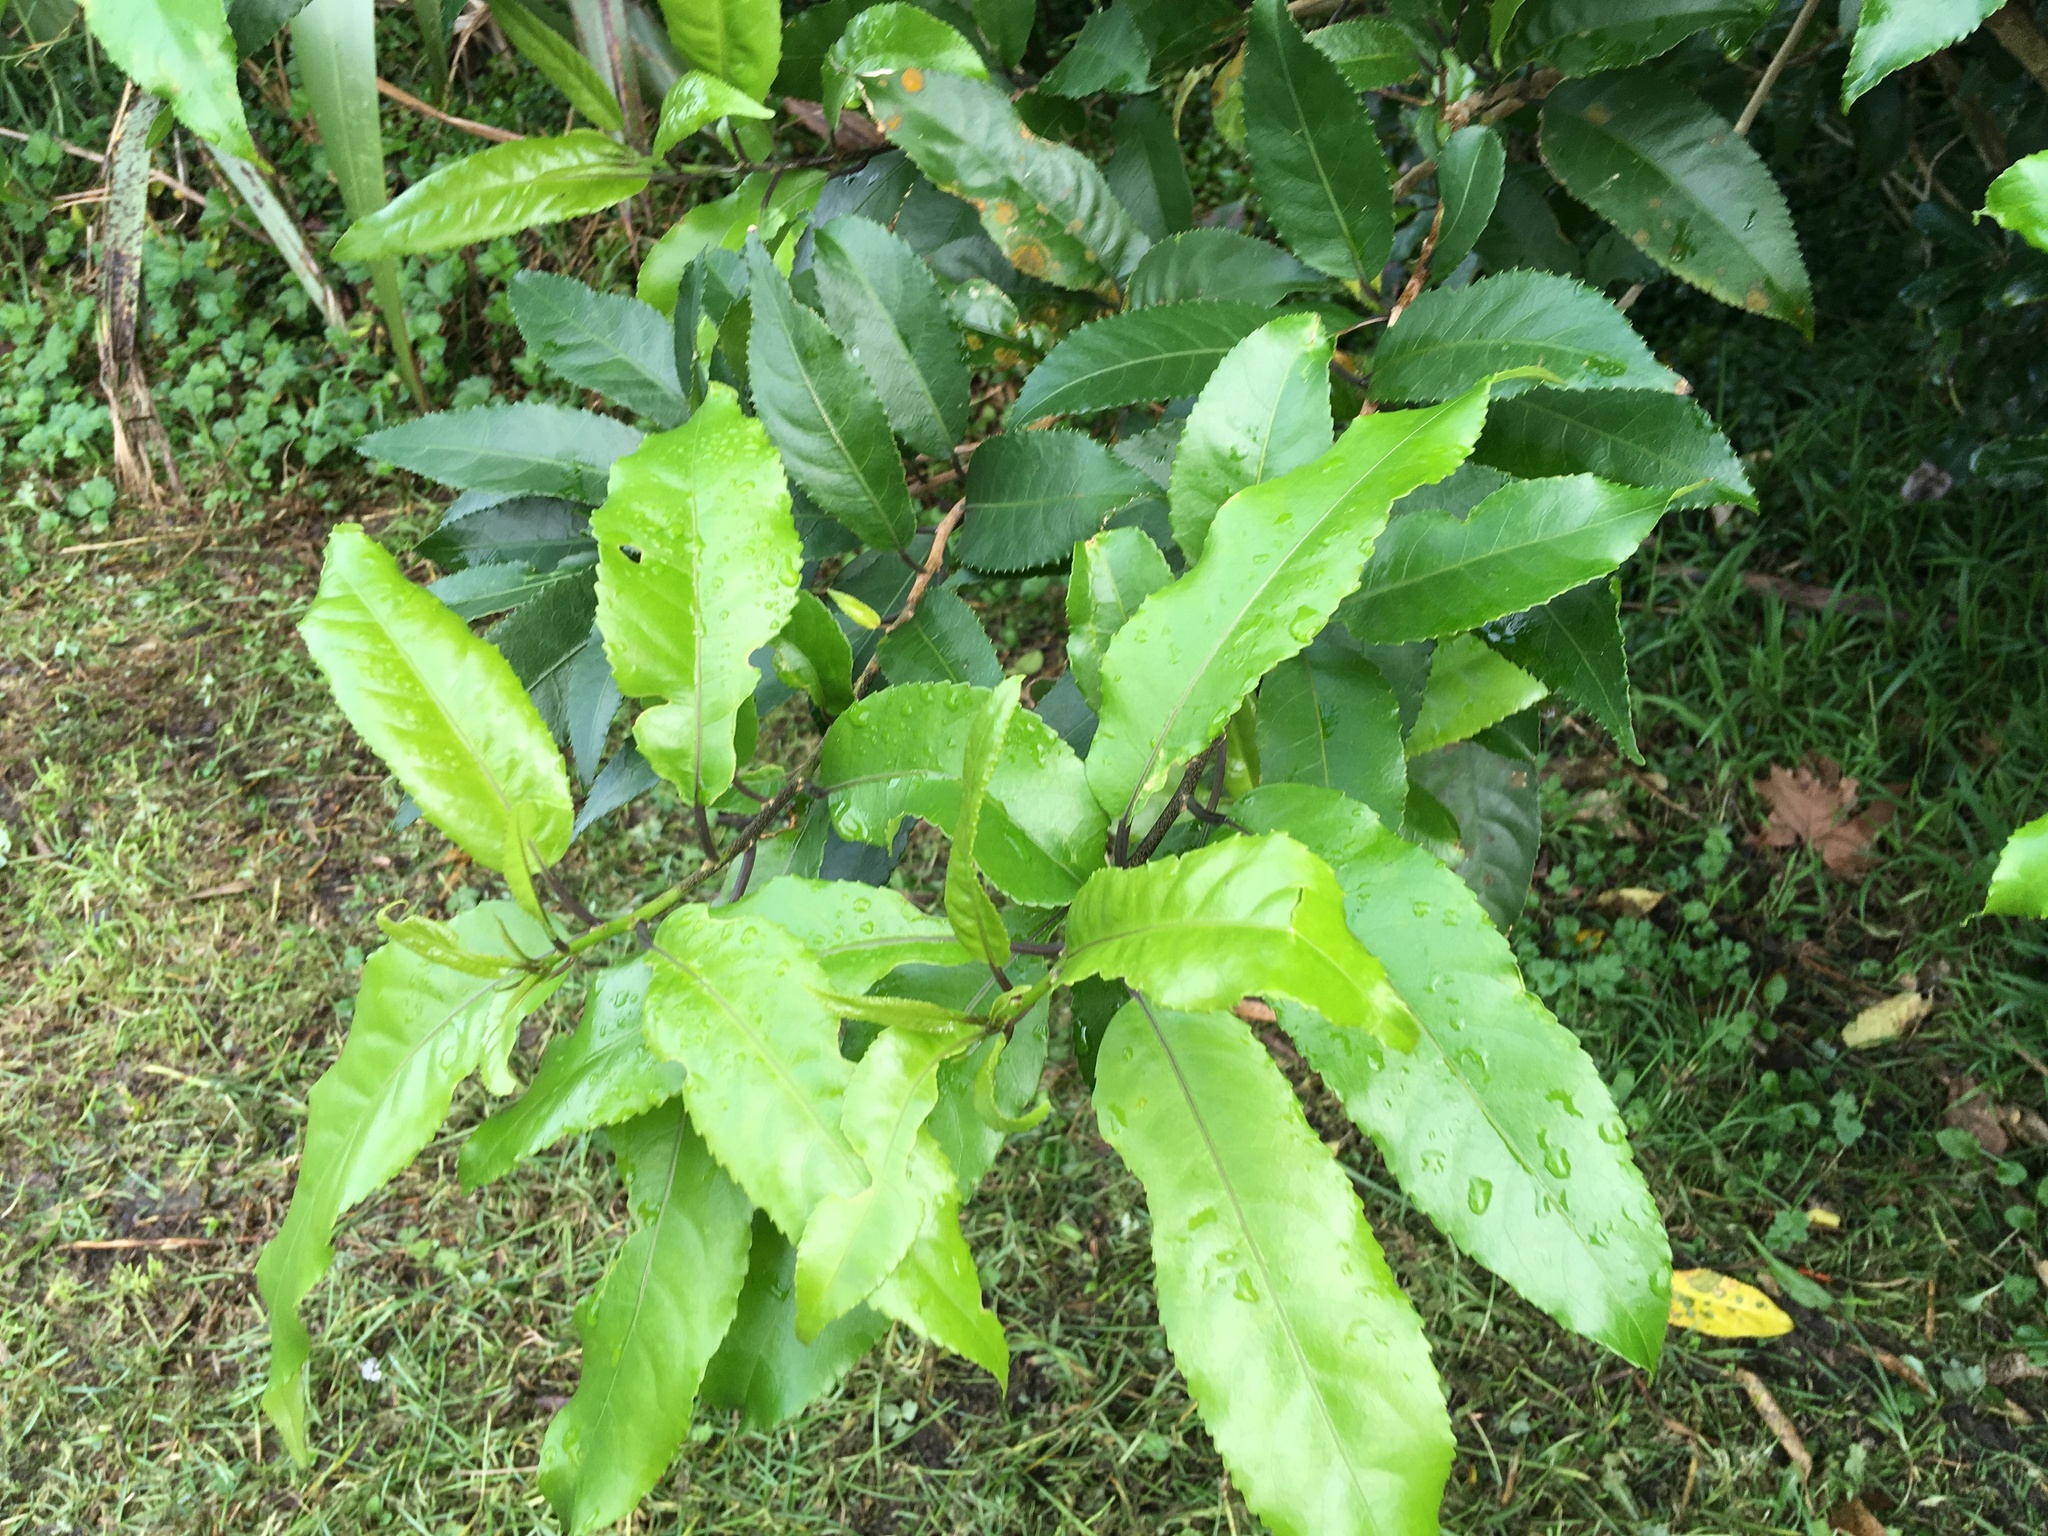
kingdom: Plantae
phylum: Tracheophyta
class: Magnoliopsida
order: Malpighiales
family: Violaceae
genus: Melicytus
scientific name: Melicytus ramiflorus
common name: Mahoe
